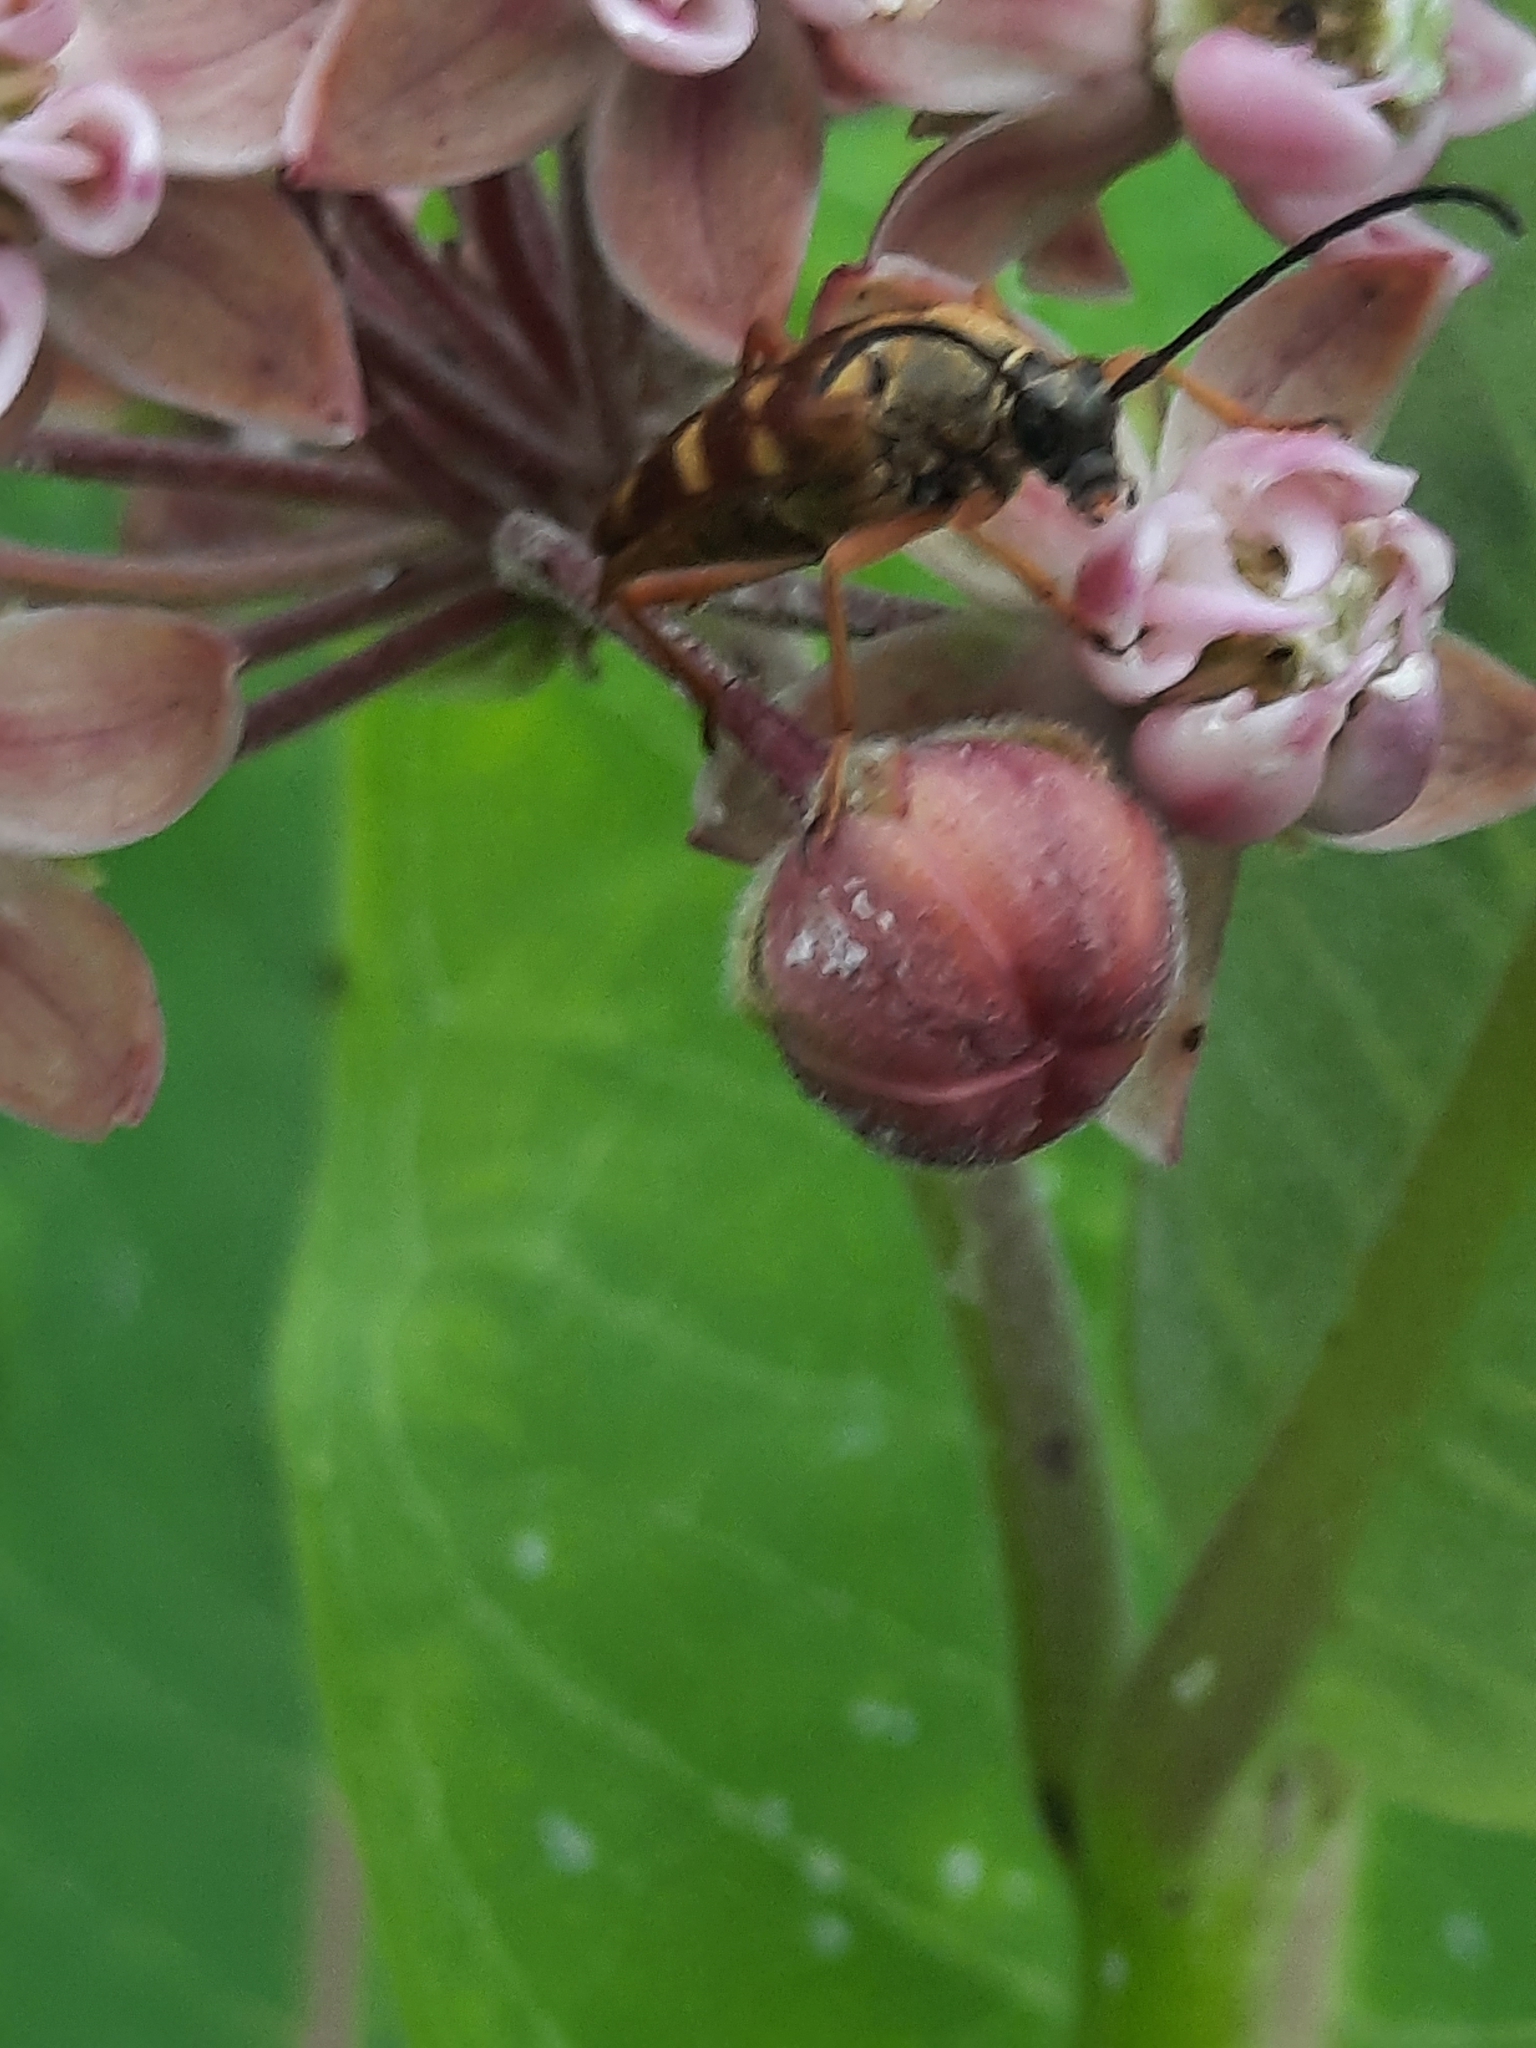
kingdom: Animalia
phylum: Arthropoda
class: Insecta
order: Coleoptera
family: Cerambycidae
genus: Typocerus
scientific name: Typocerus velutinus
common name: Banded longhorn beetle
